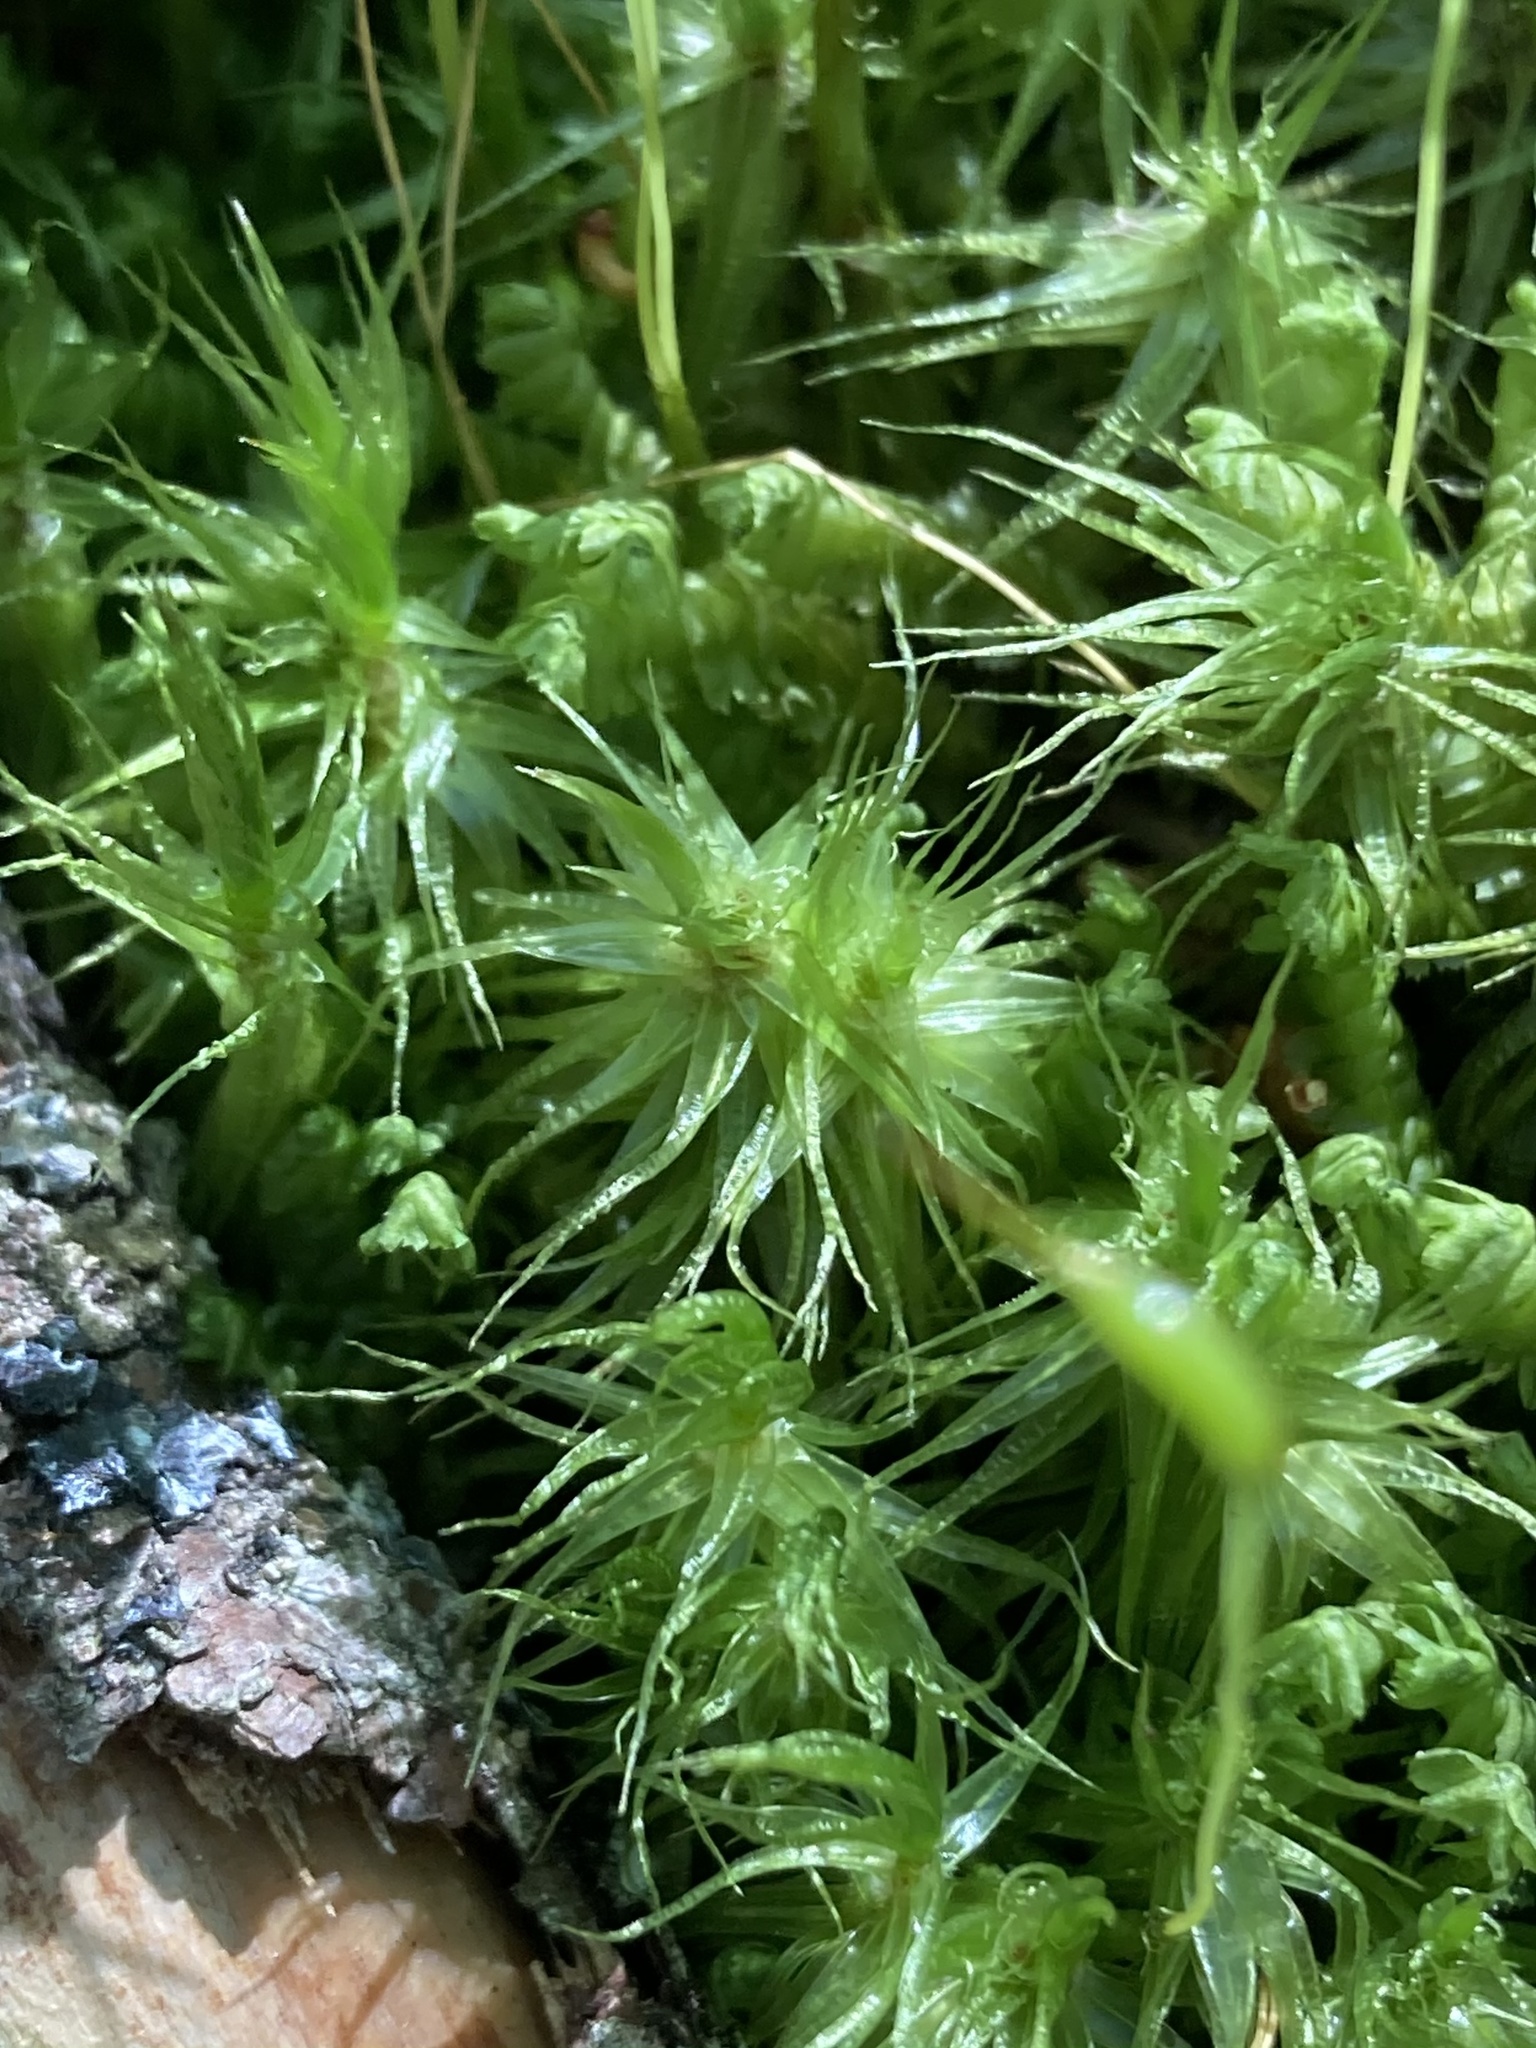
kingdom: Plantae
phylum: Bryophyta
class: Bryopsida
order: Dicranales
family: Dicranaceae
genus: Dicranum
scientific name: Dicranum polysetum
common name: Rugose fork-moss
